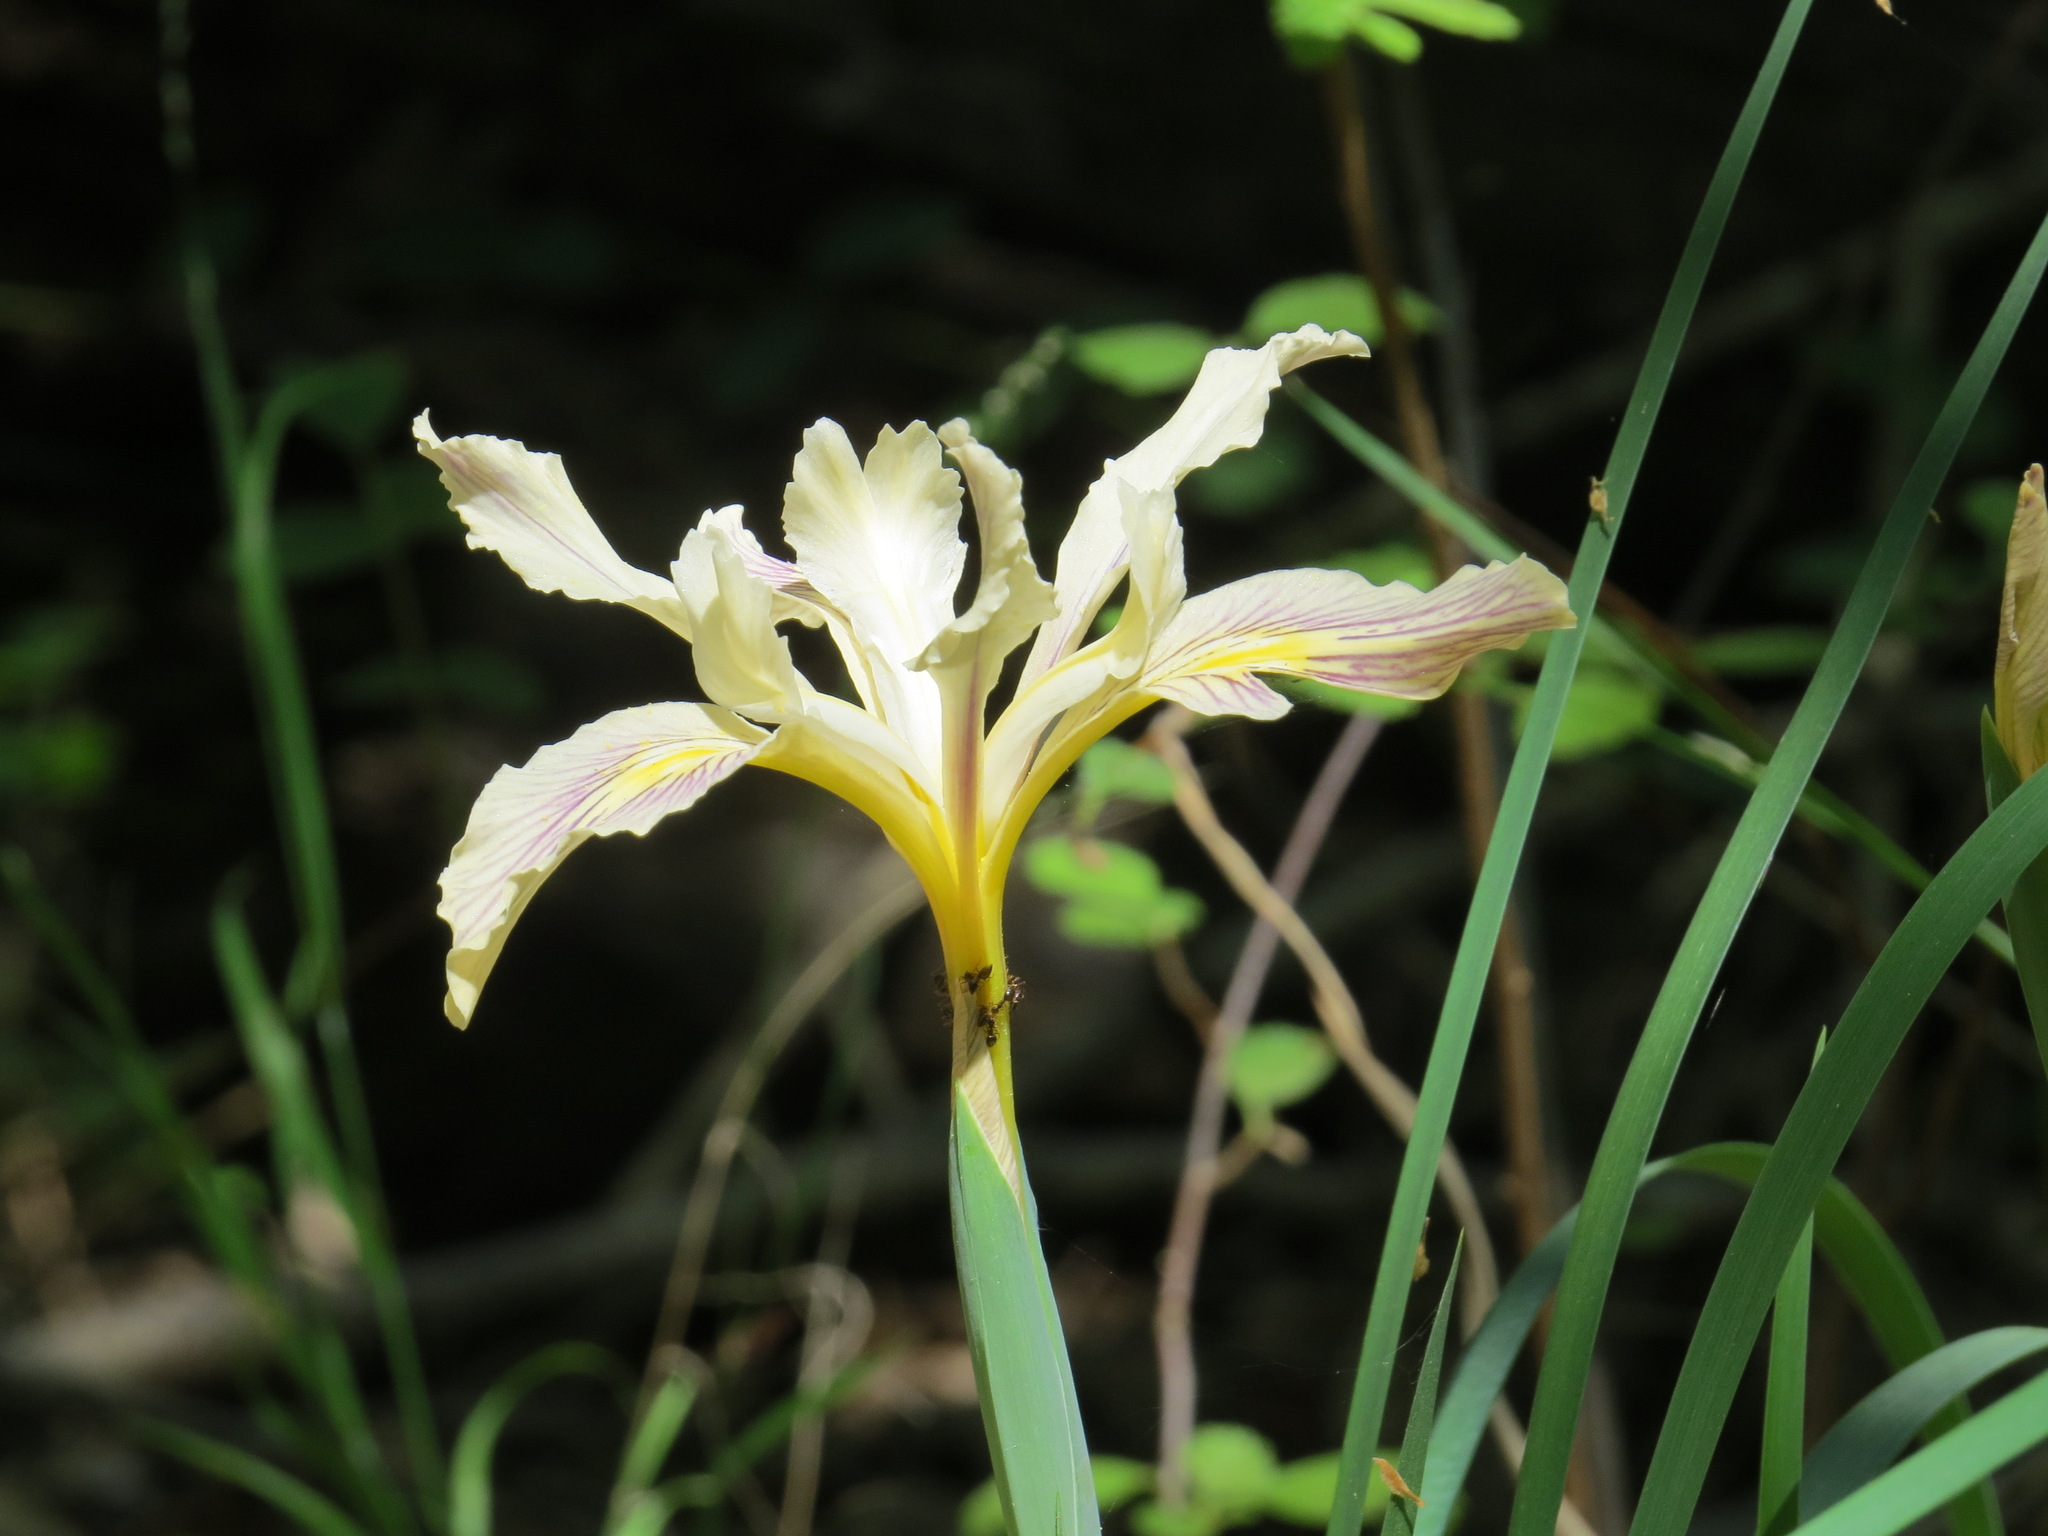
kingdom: Animalia
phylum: Arthropoda
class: Insecta
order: Hymenoptera
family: Formicidae
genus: Prenolepis
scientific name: Prenolepis imparis
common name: Small honey ant
